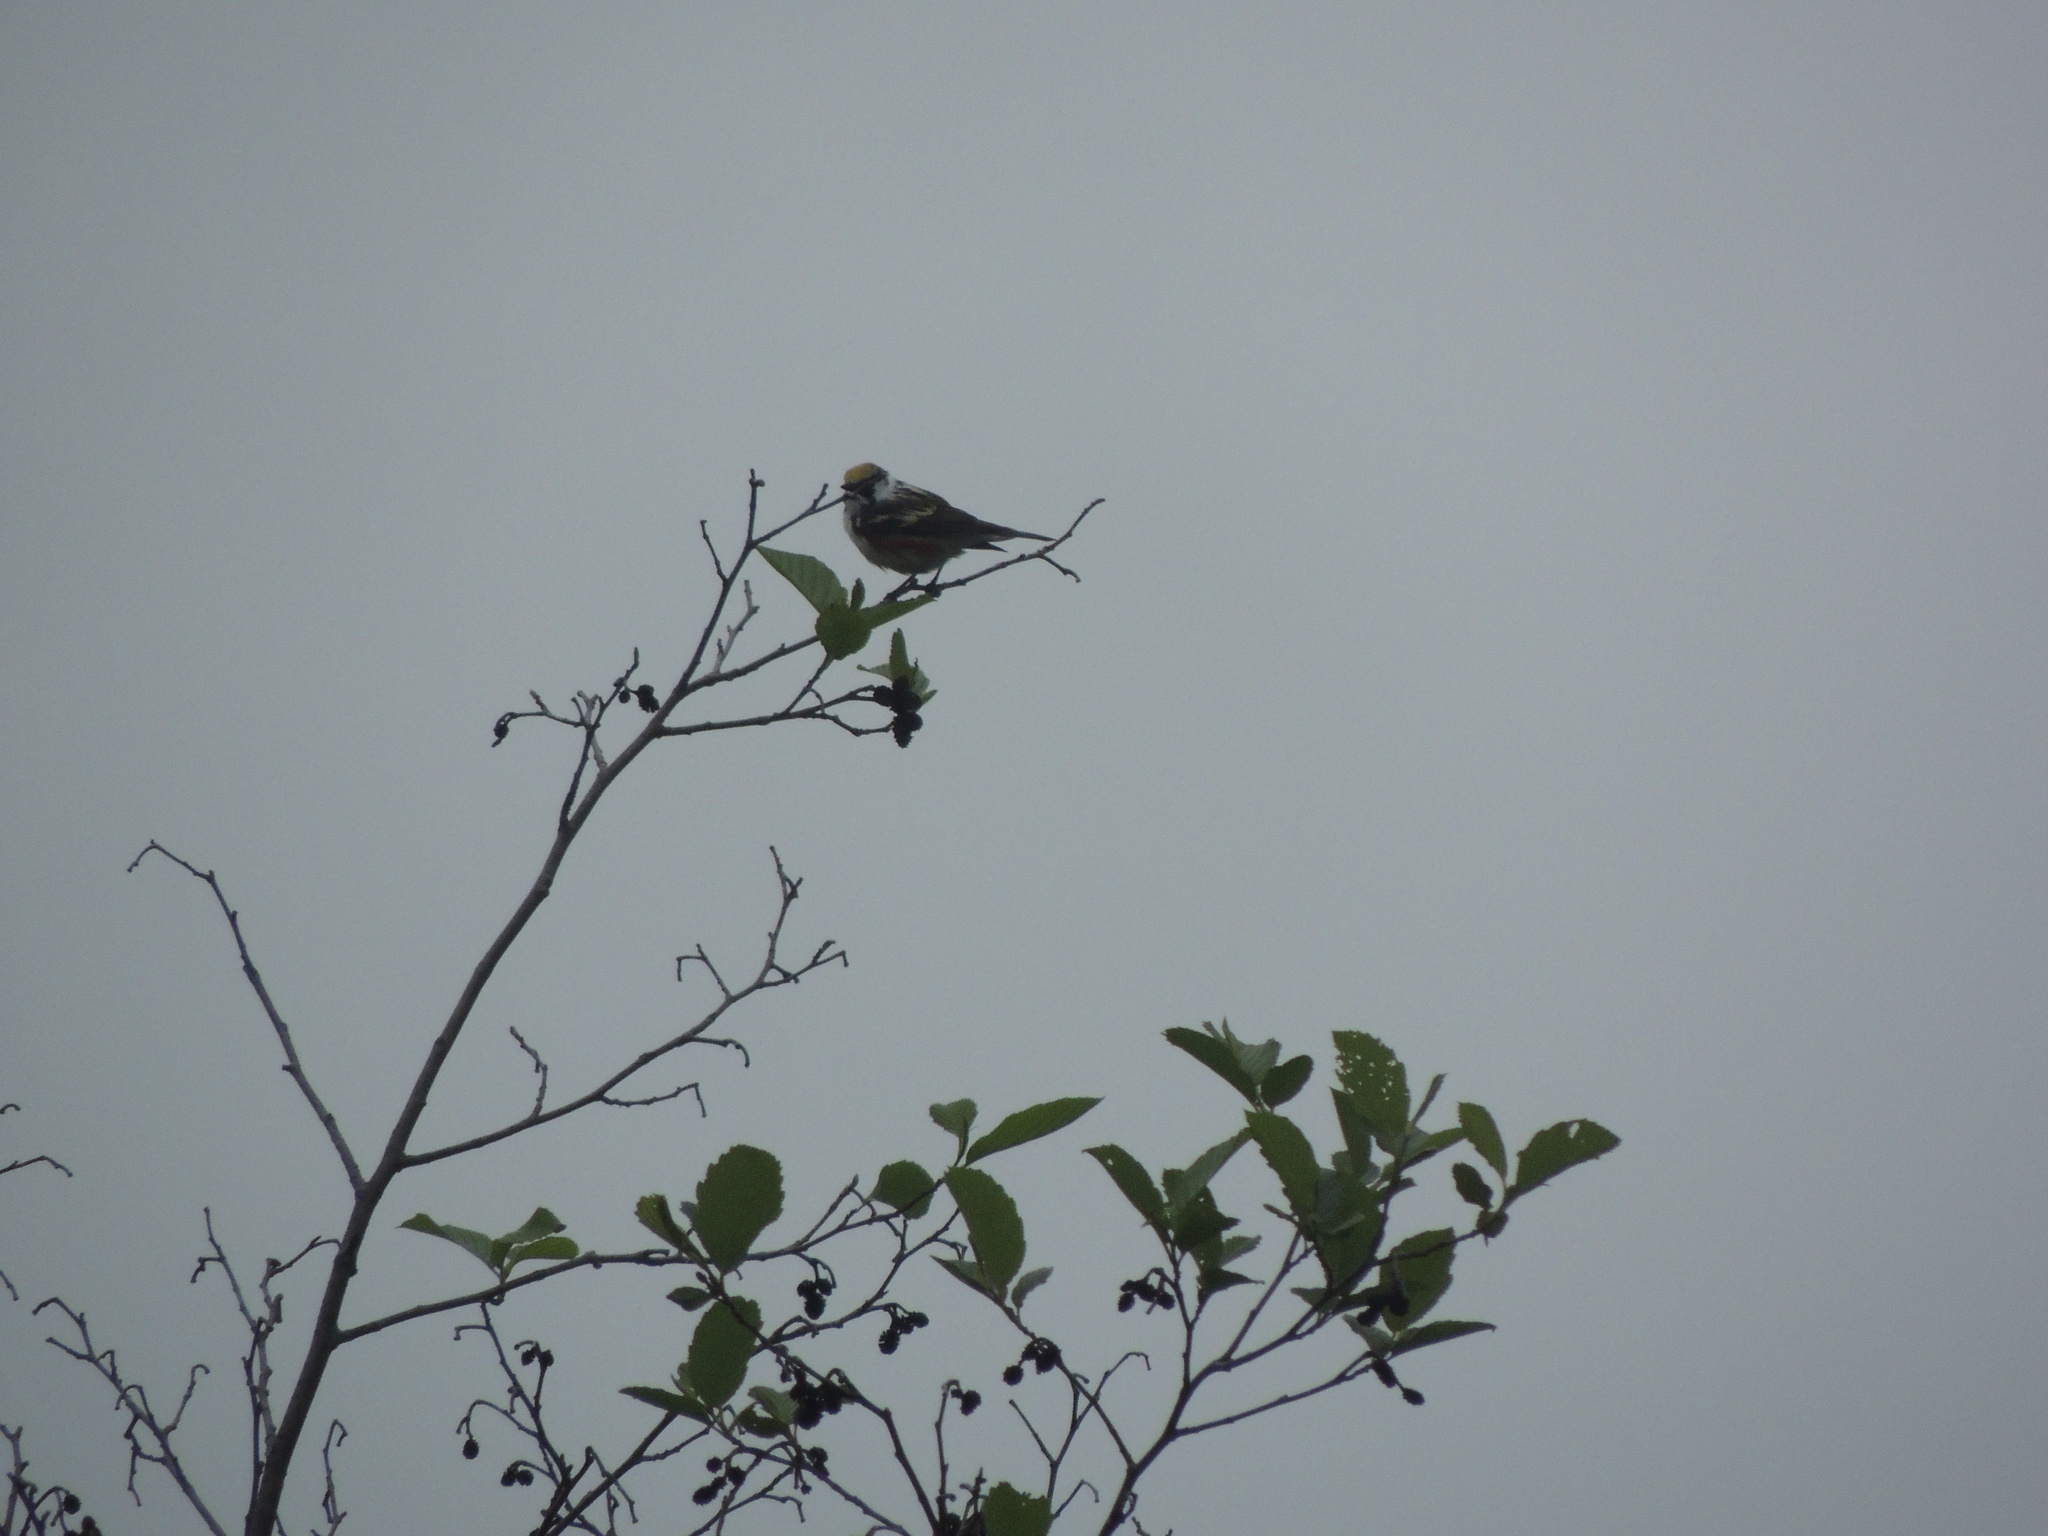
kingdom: Animalia
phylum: Chordata
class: Aves
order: Passeriformes
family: Parulidae
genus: Setophaga
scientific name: Setophaga pensylvanica
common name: Chestnut-sided warbler
